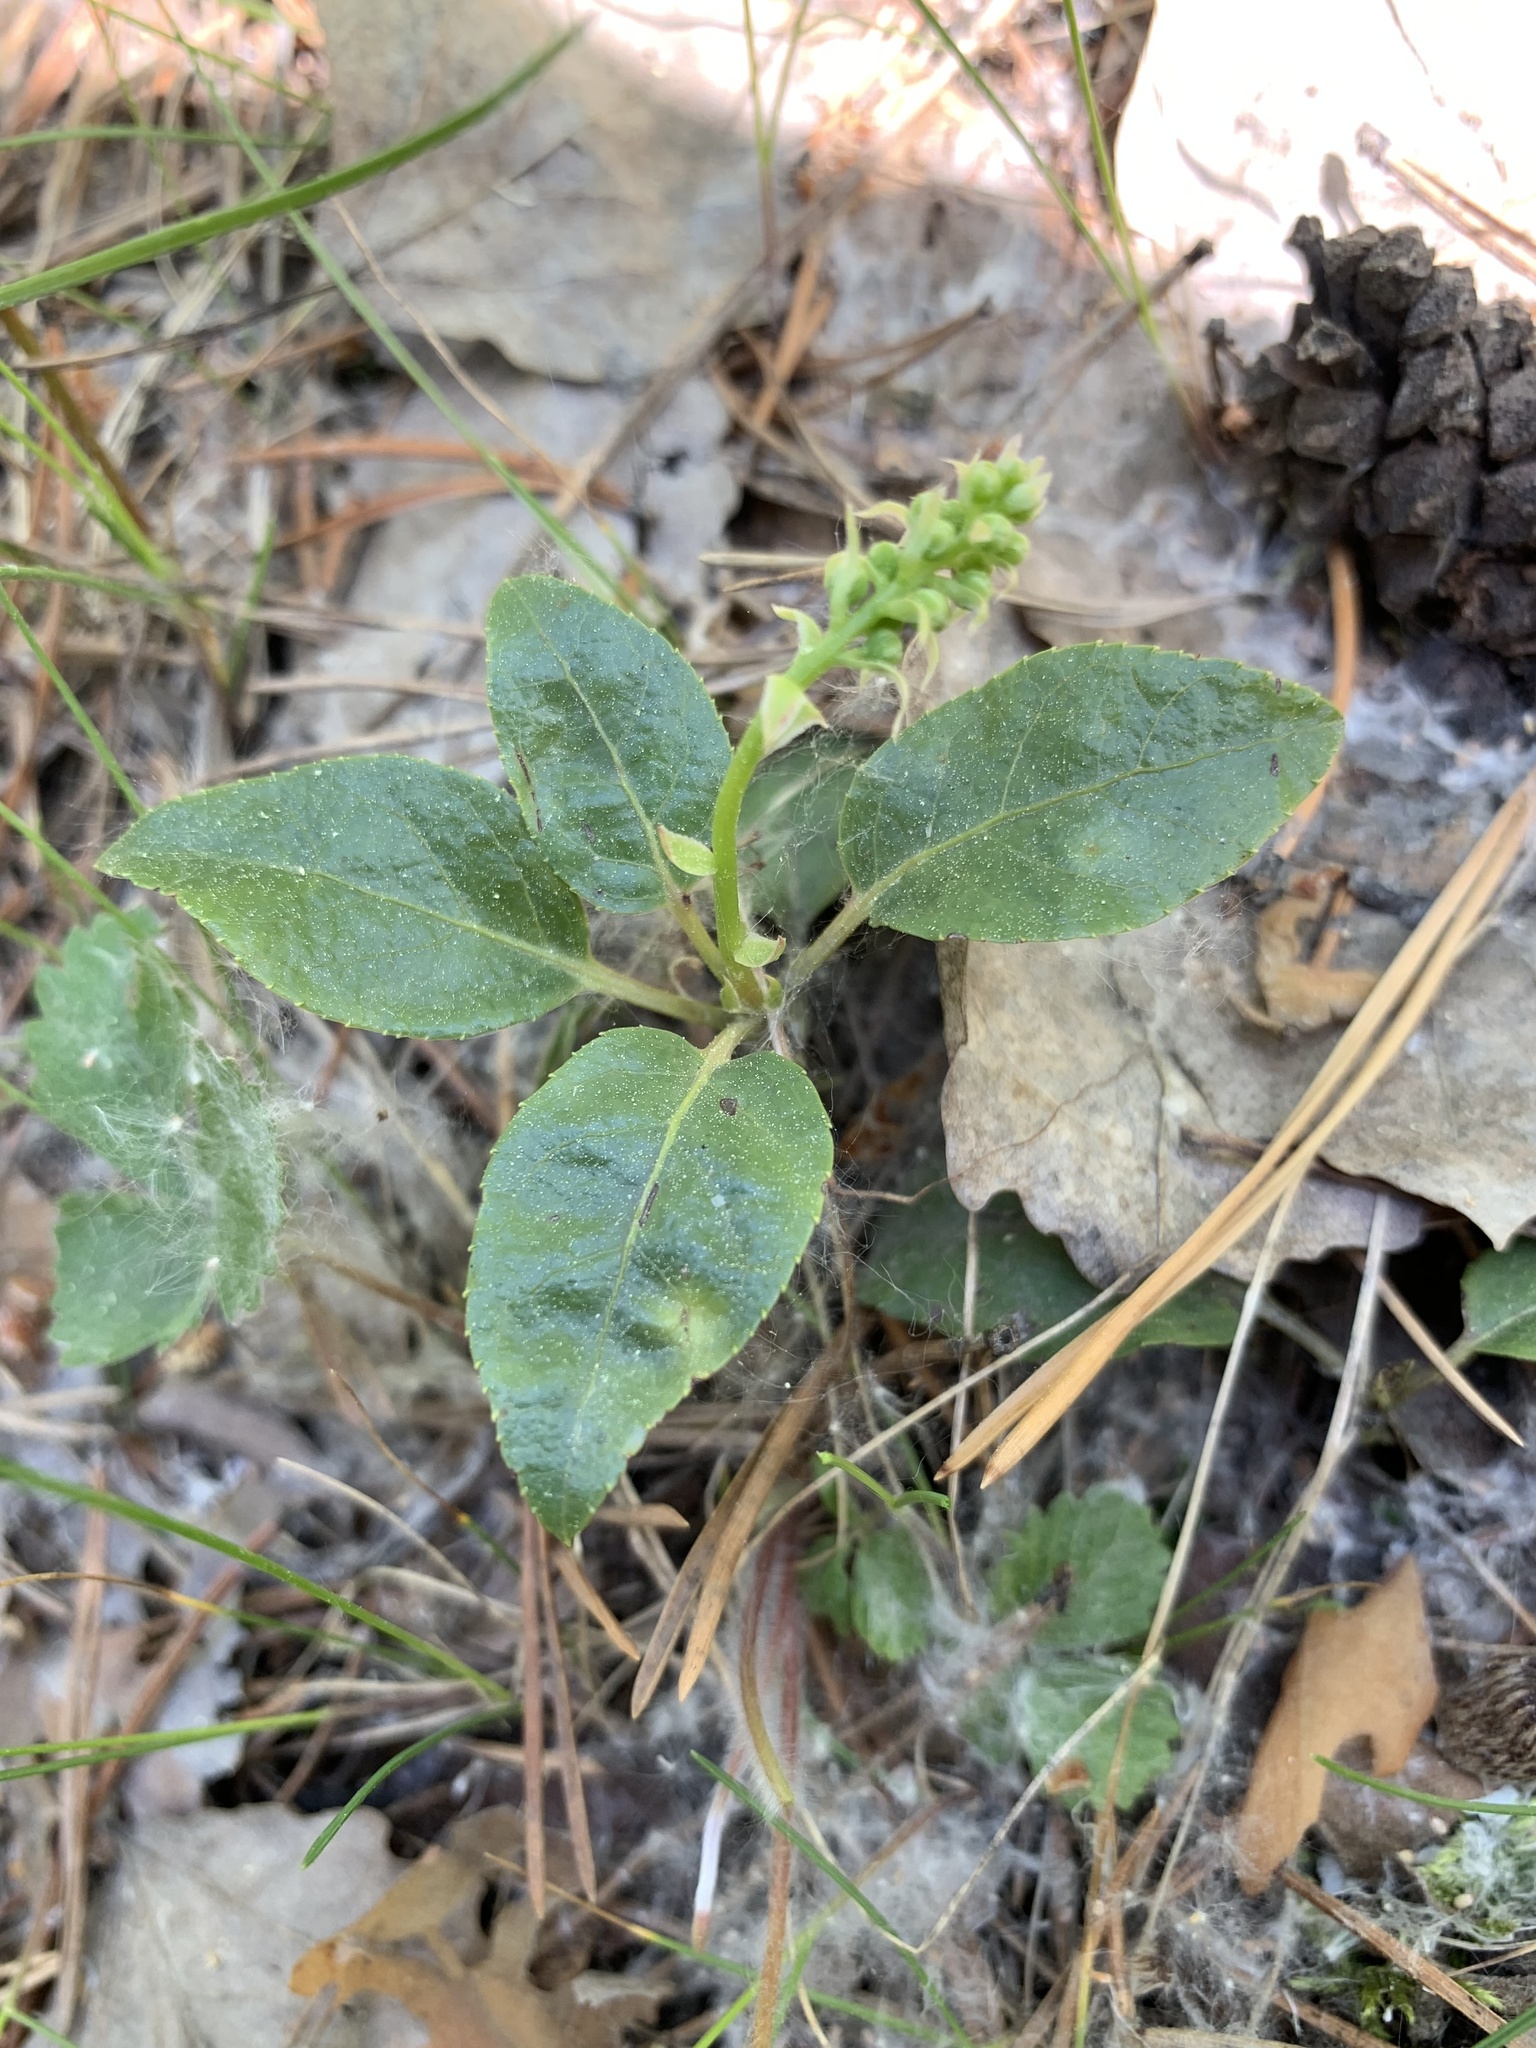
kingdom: Plantae
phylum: Tracheophyta
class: Magnoliopsida
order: Ericales
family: Ericaceae
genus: Orthilia
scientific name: Orthilia secunda
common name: One-sided orthilia
